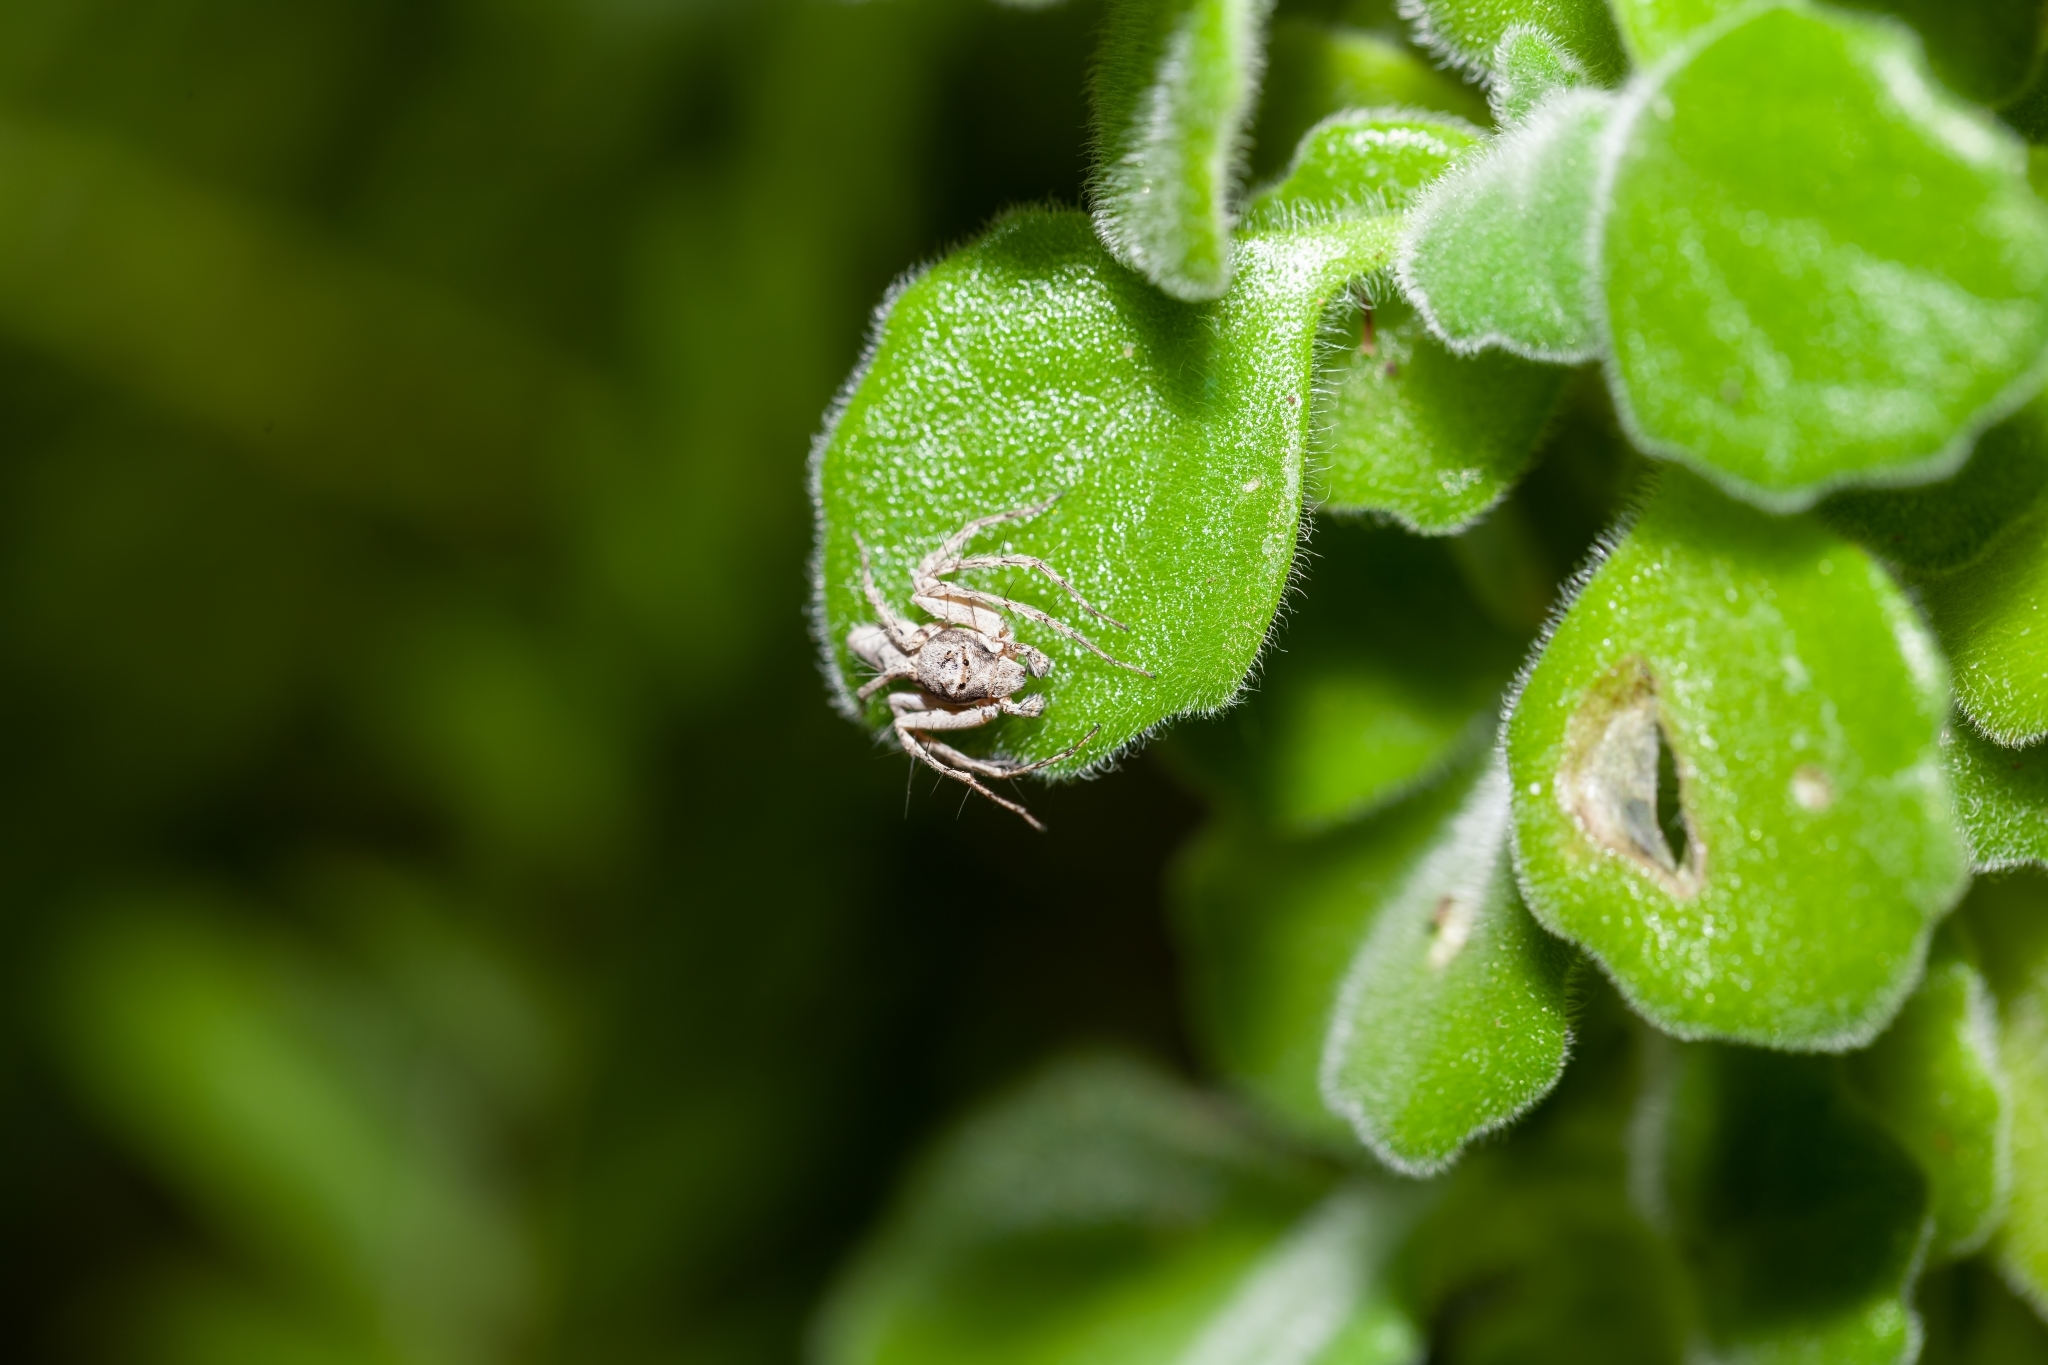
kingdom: Animalia
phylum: Arthropoda
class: Arachnida
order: Araneae
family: Oxyopidae
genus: Hamataliwa
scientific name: Hamataliwa grisea
